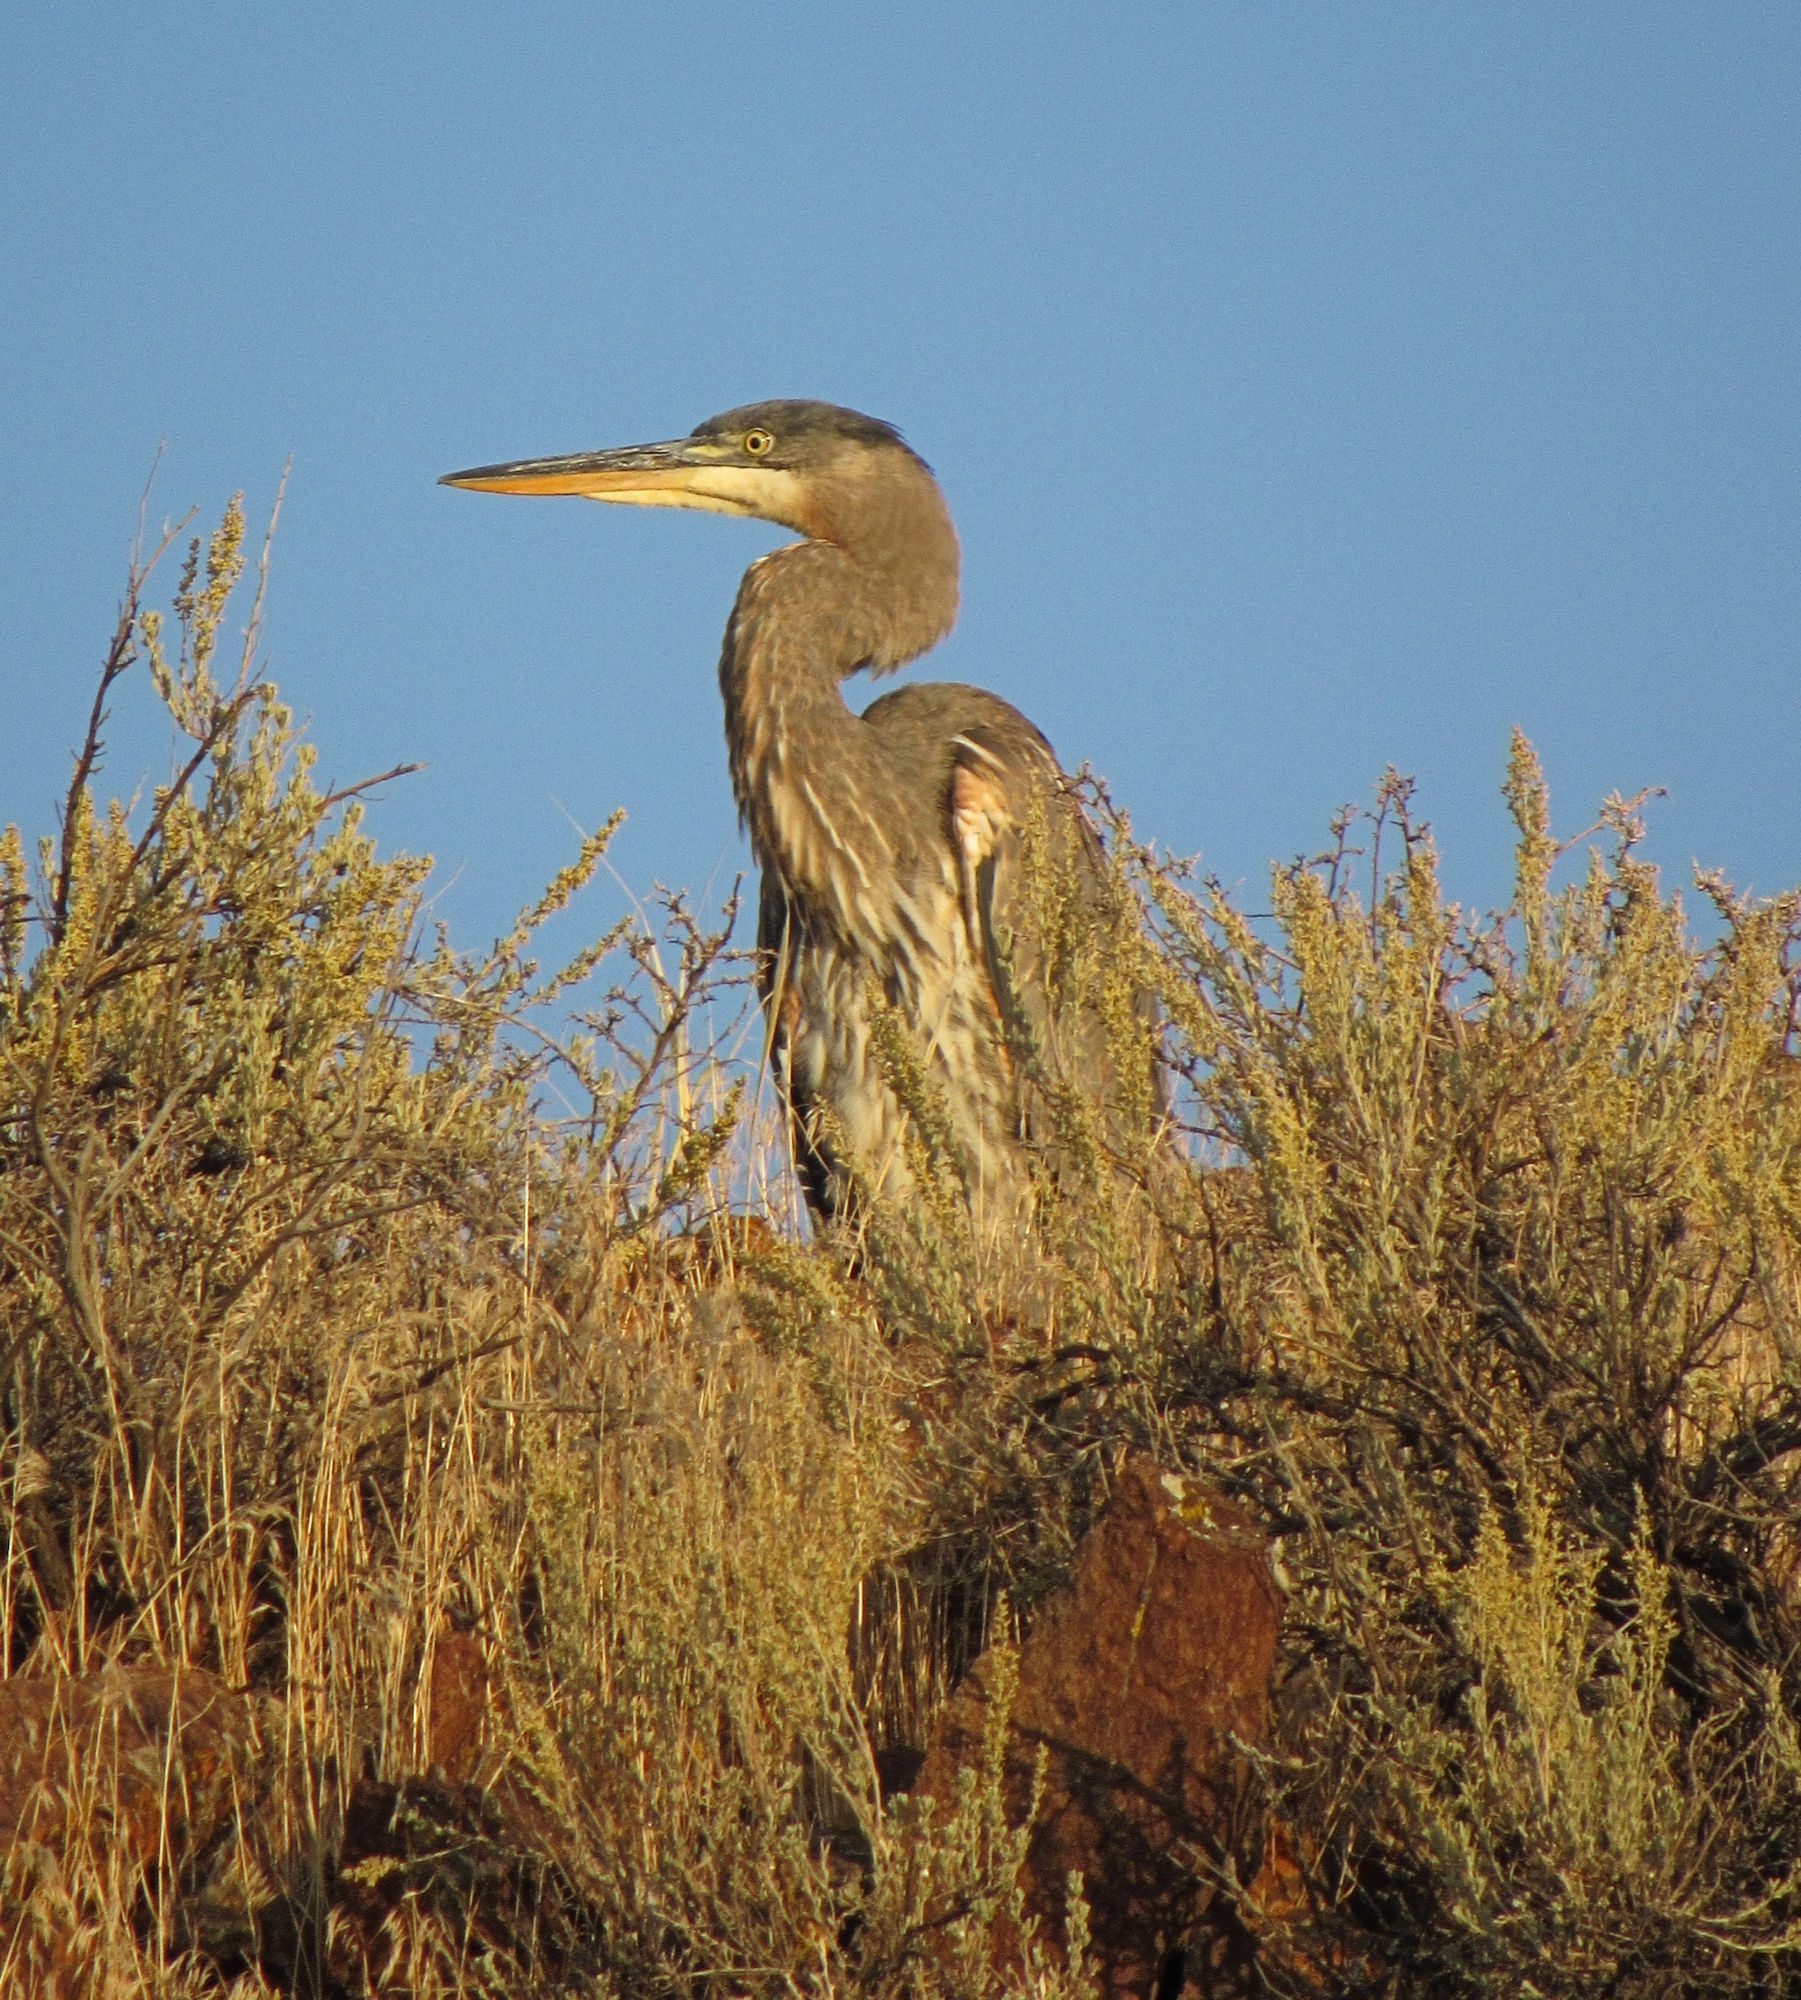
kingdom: Animalia
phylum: Chordata
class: Aves
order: Pelecaniformes
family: Ardeidae
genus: Ardea
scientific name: Ardea herodias
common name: Great blue heron
